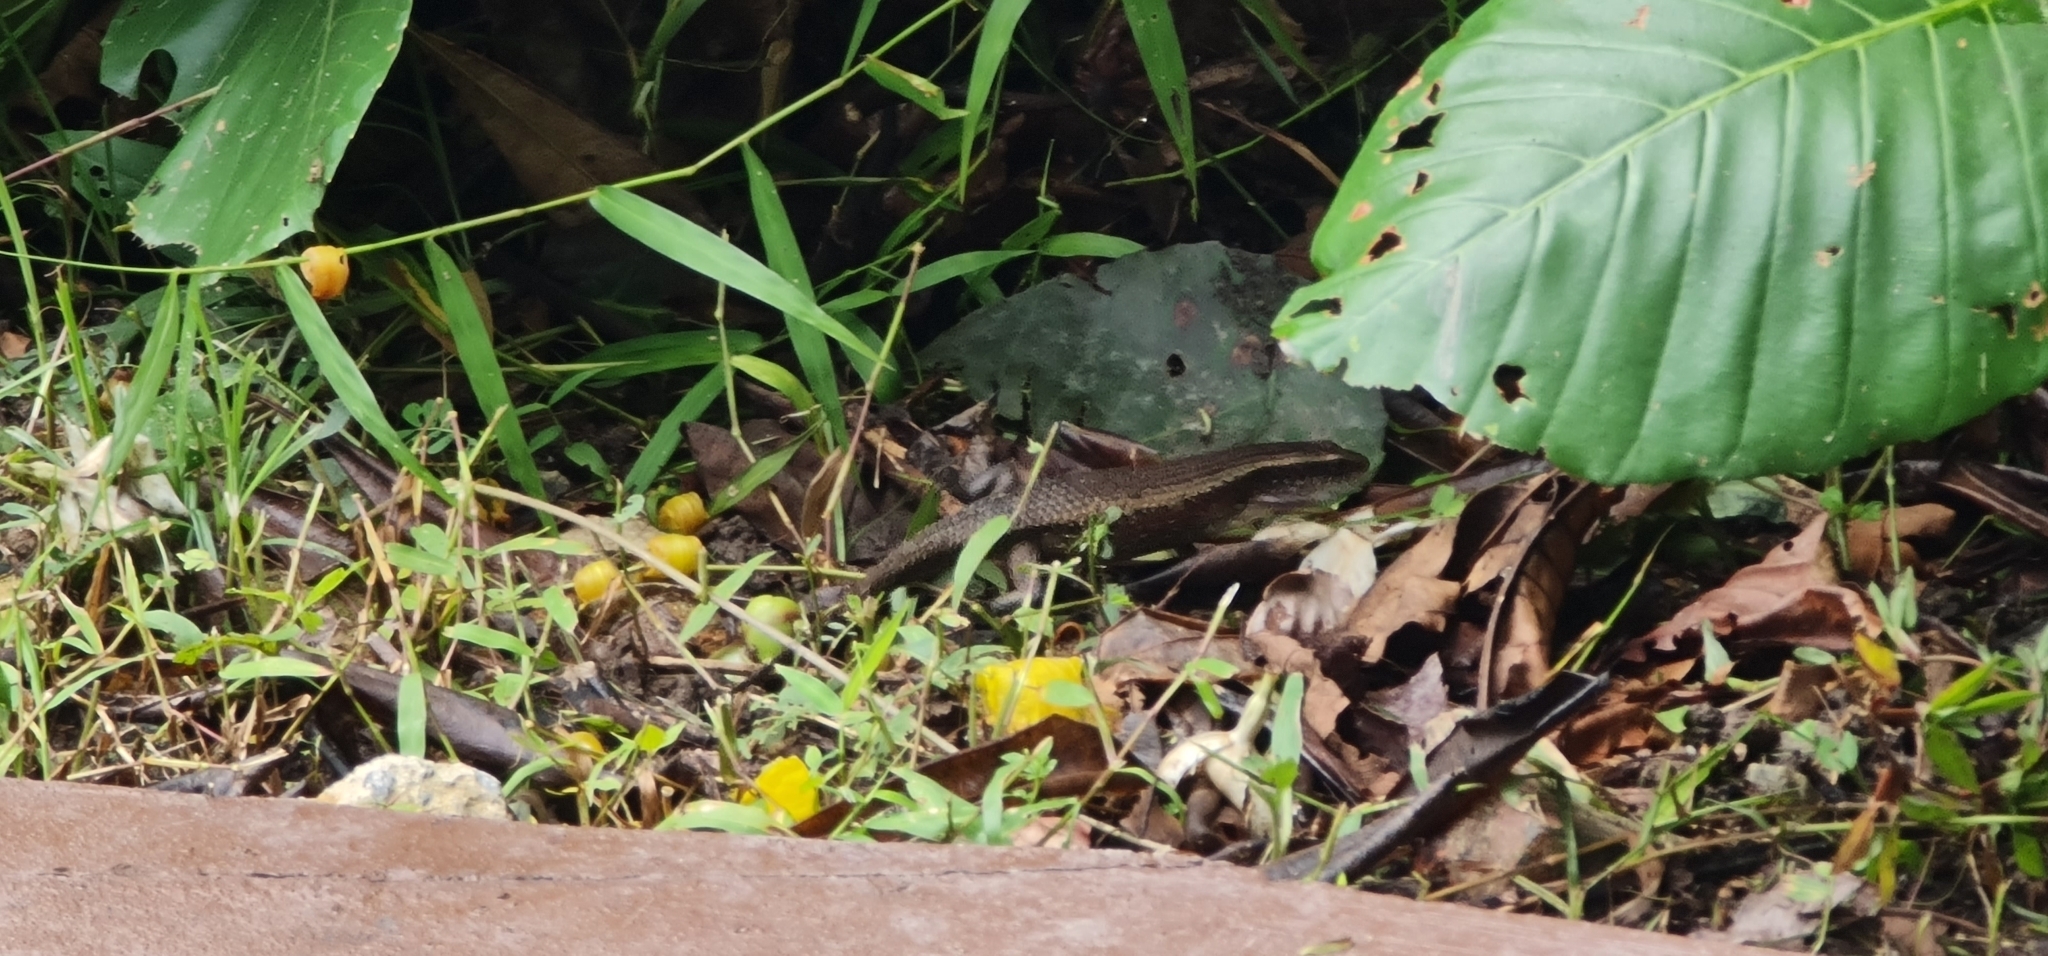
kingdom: Animalia
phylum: Chordata
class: Squamata
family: Scincidae
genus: Eutropis
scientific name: Eutropis multifasciata
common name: Common mabuya
